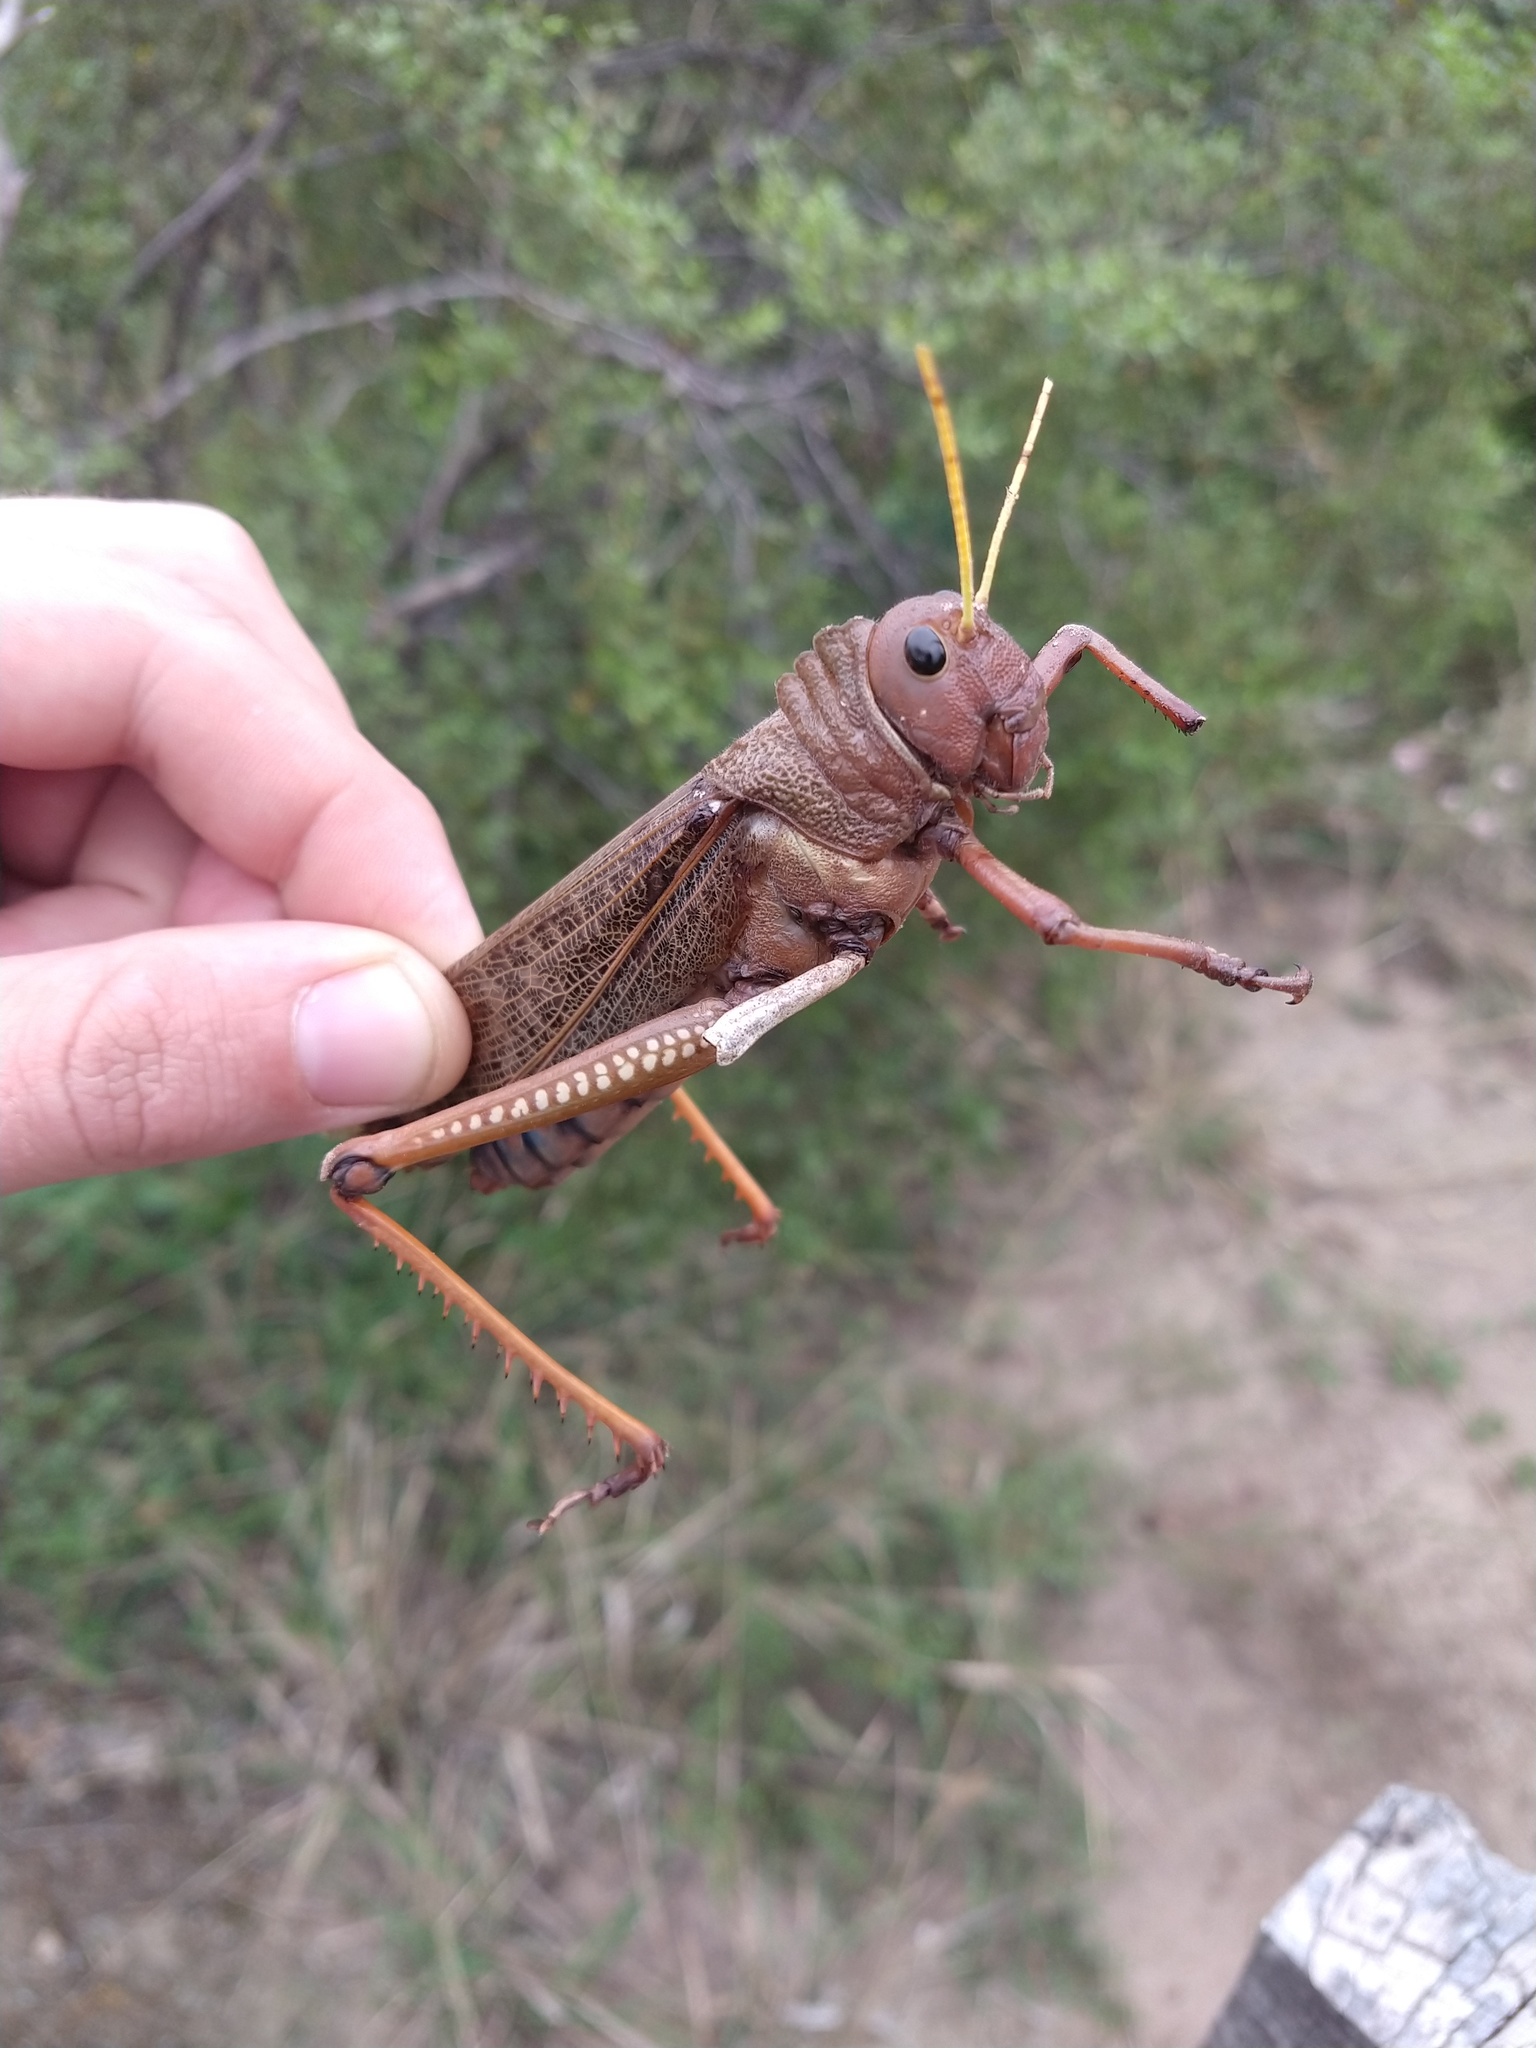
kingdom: Animalia
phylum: Arthropoda
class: Insecta
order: Orthoptera
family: Romaleidae
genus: Tropidacris
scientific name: Tropidacris collaris
